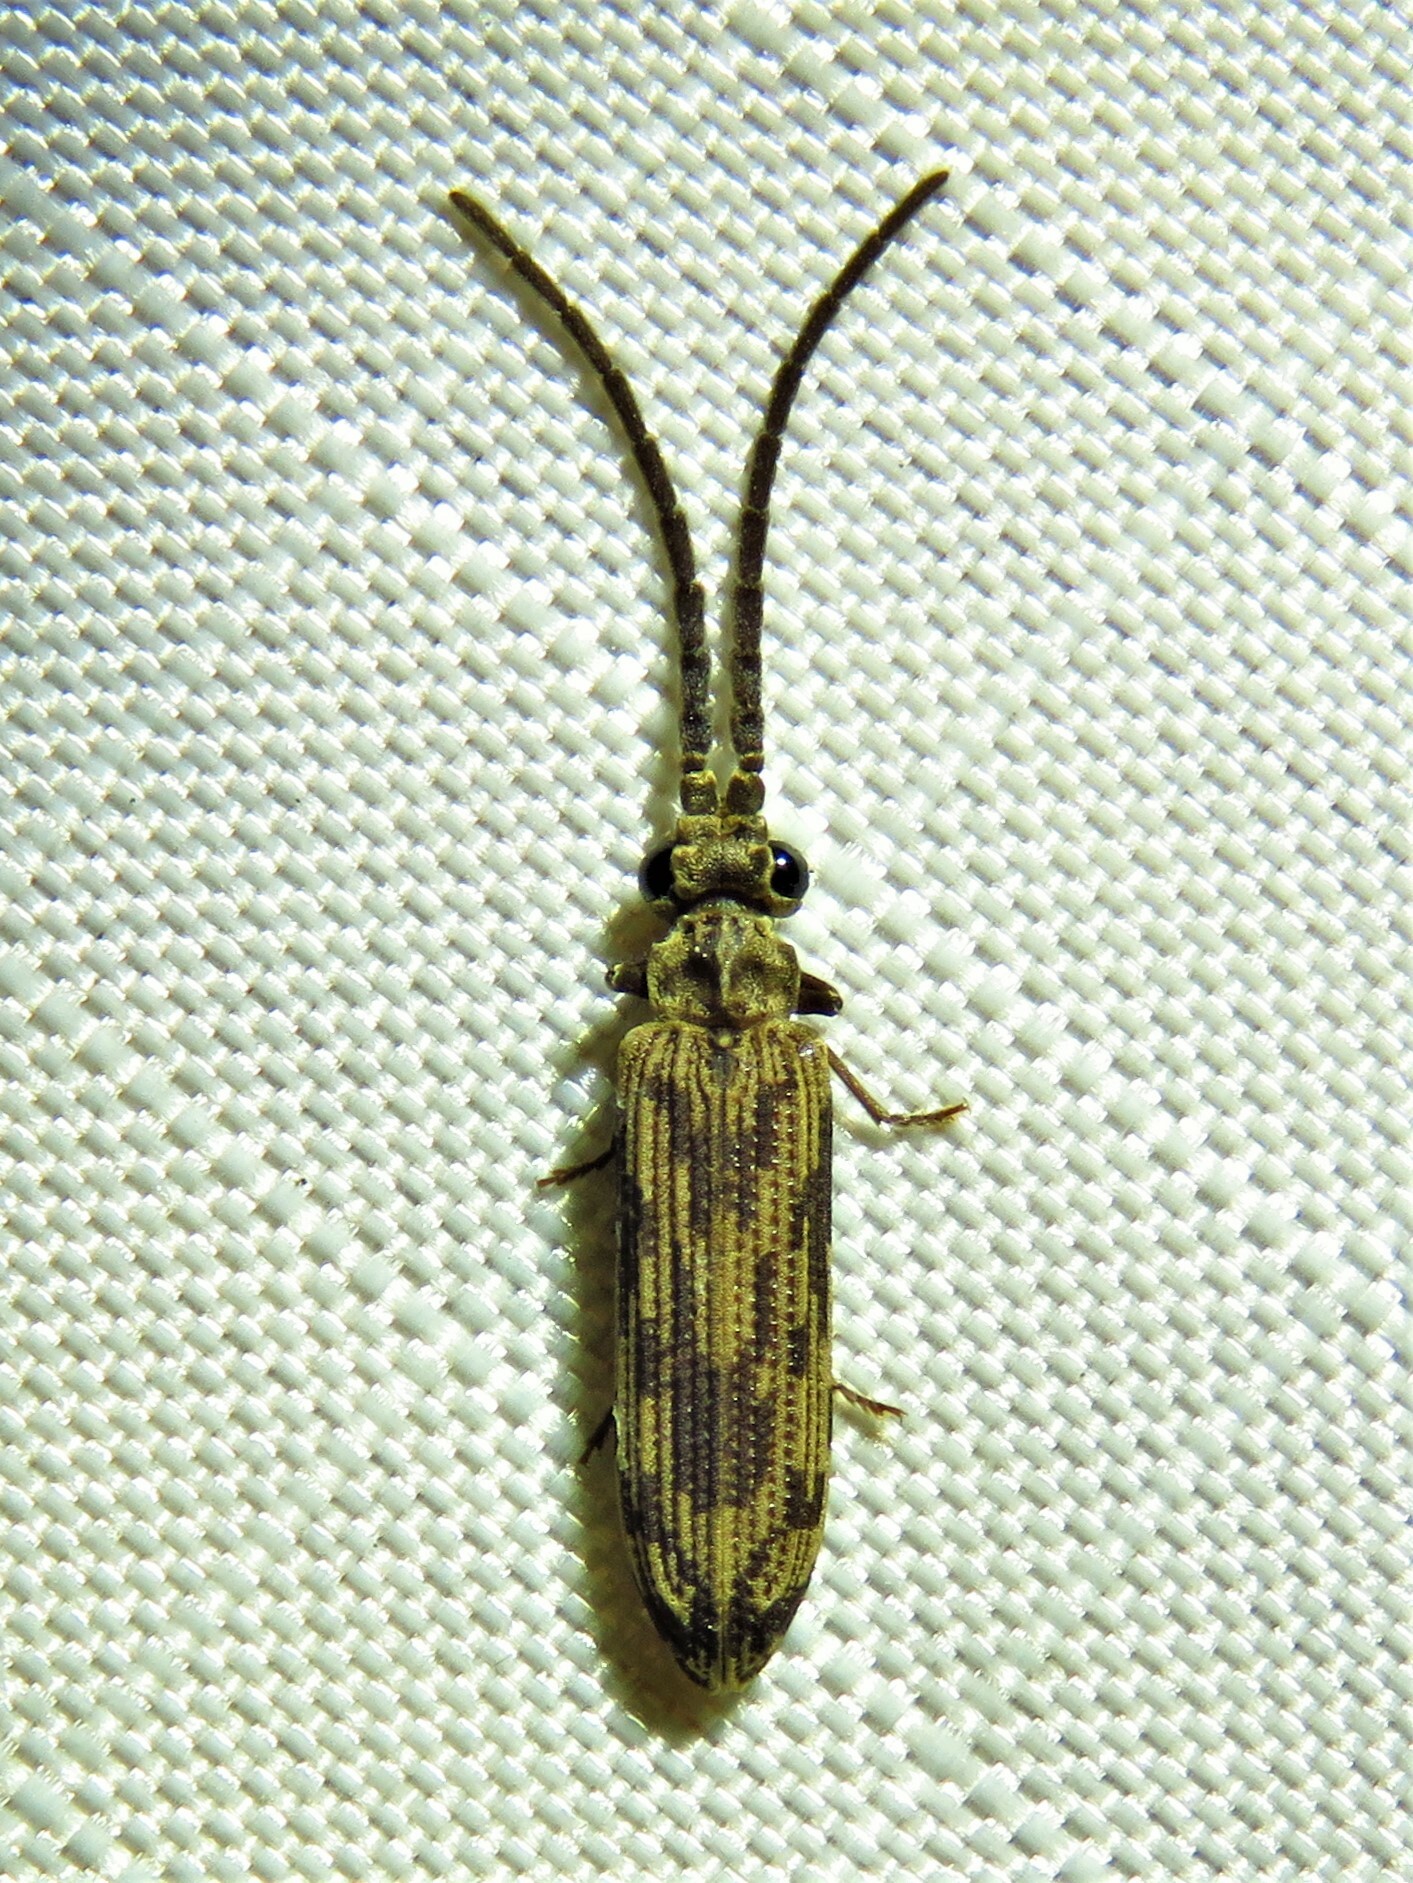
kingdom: Animalia
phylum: Arthropoda
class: Insecta
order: Coleoptera
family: Cupedidae
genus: Tenomerga
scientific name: Tenomerga cinerea
